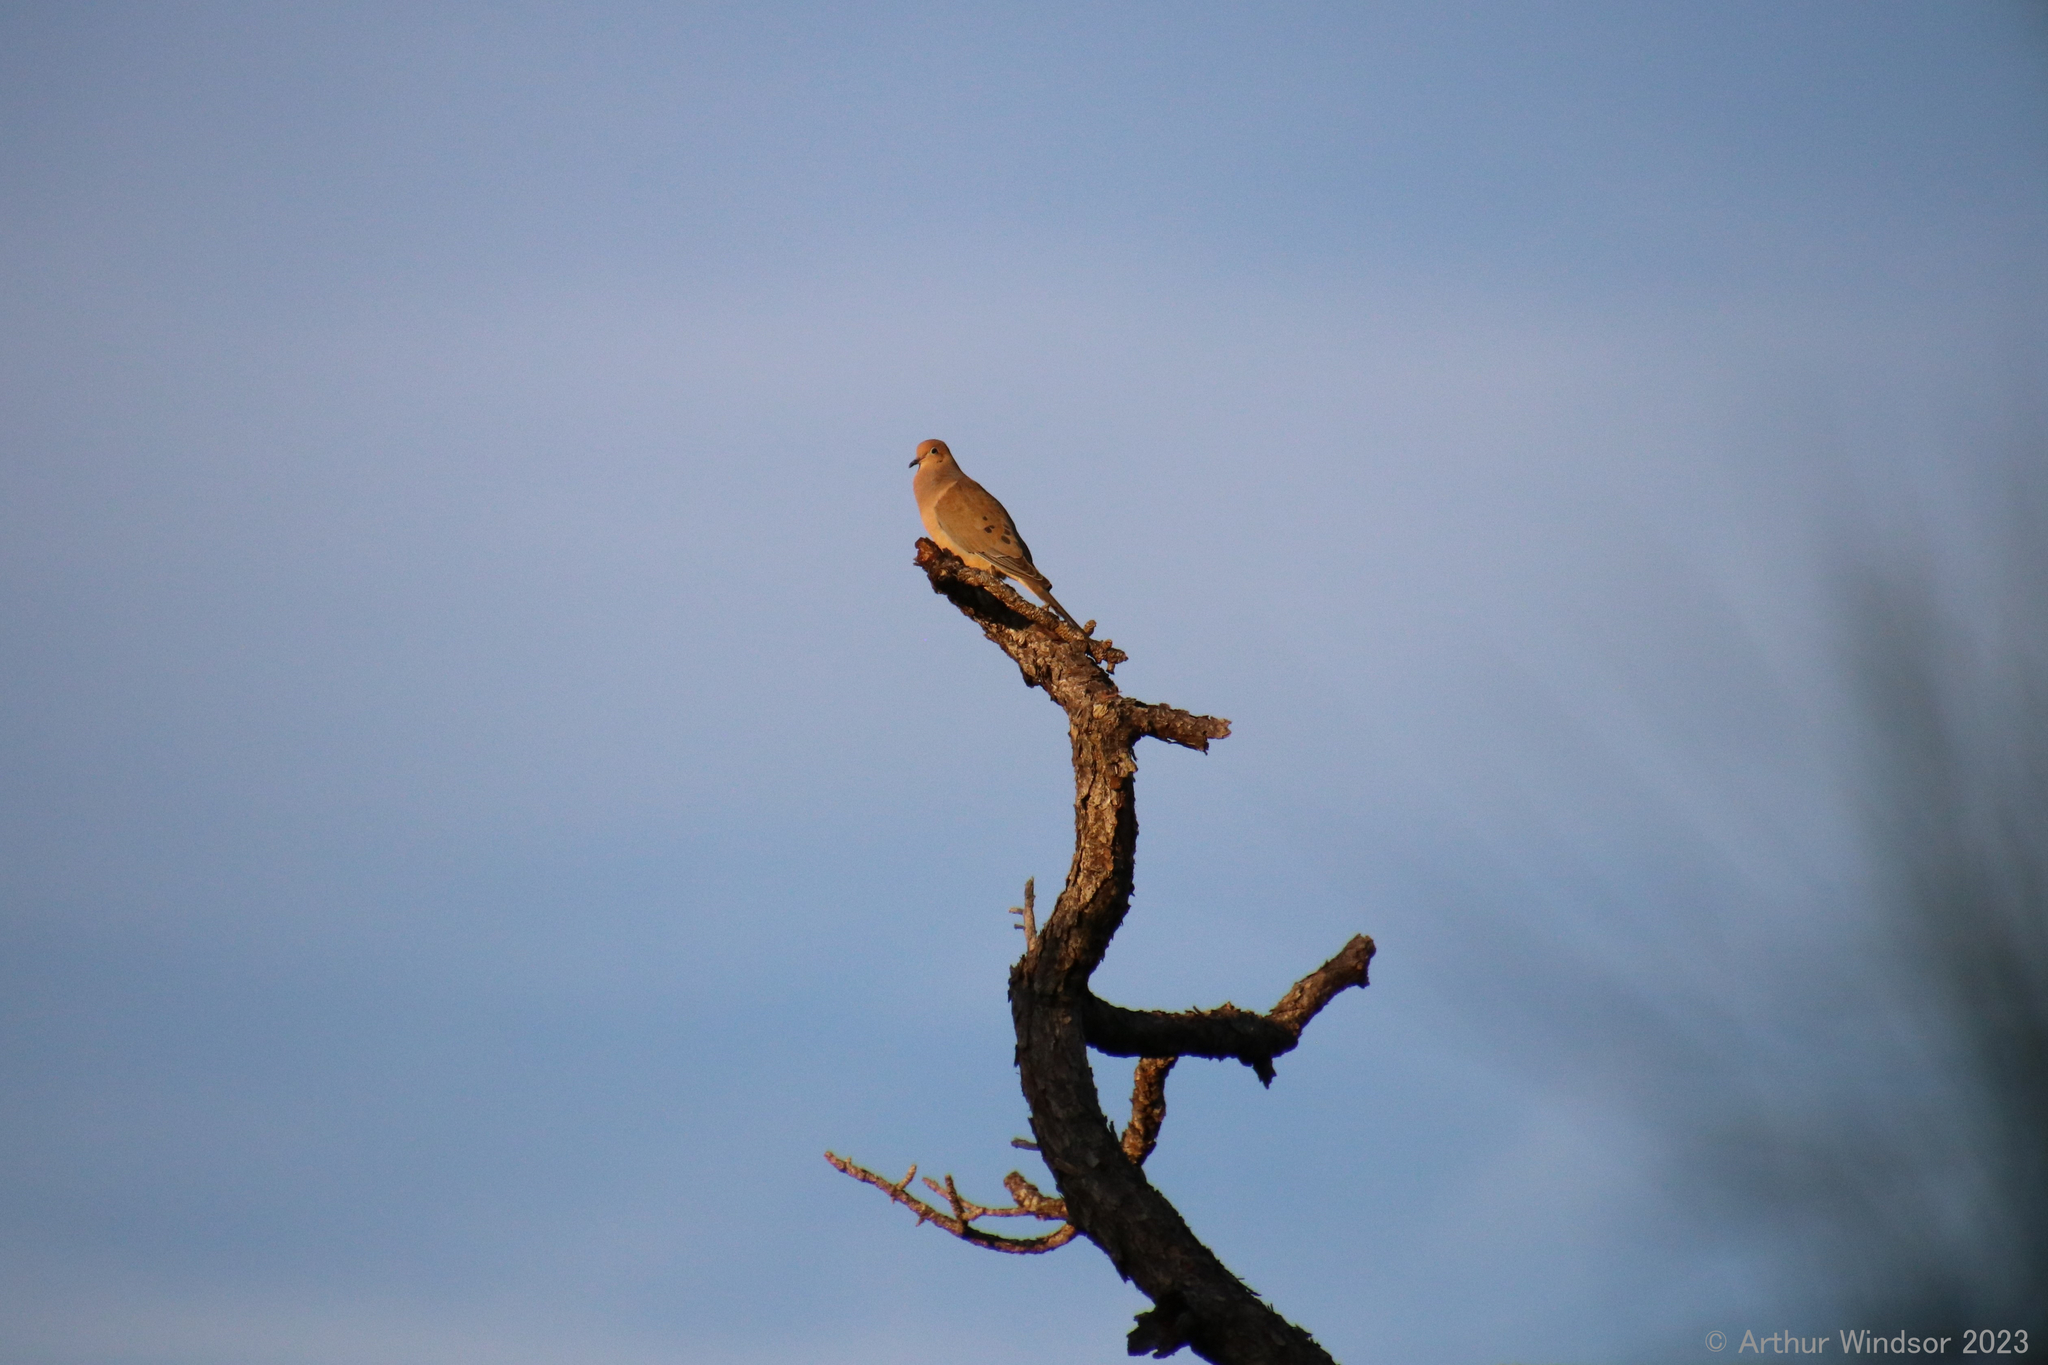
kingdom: Animalia
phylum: Chordata
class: Aves
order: Columbiformes
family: Columbidae
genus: Zenaida
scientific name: Zenaida macroura
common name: Mourning dove
